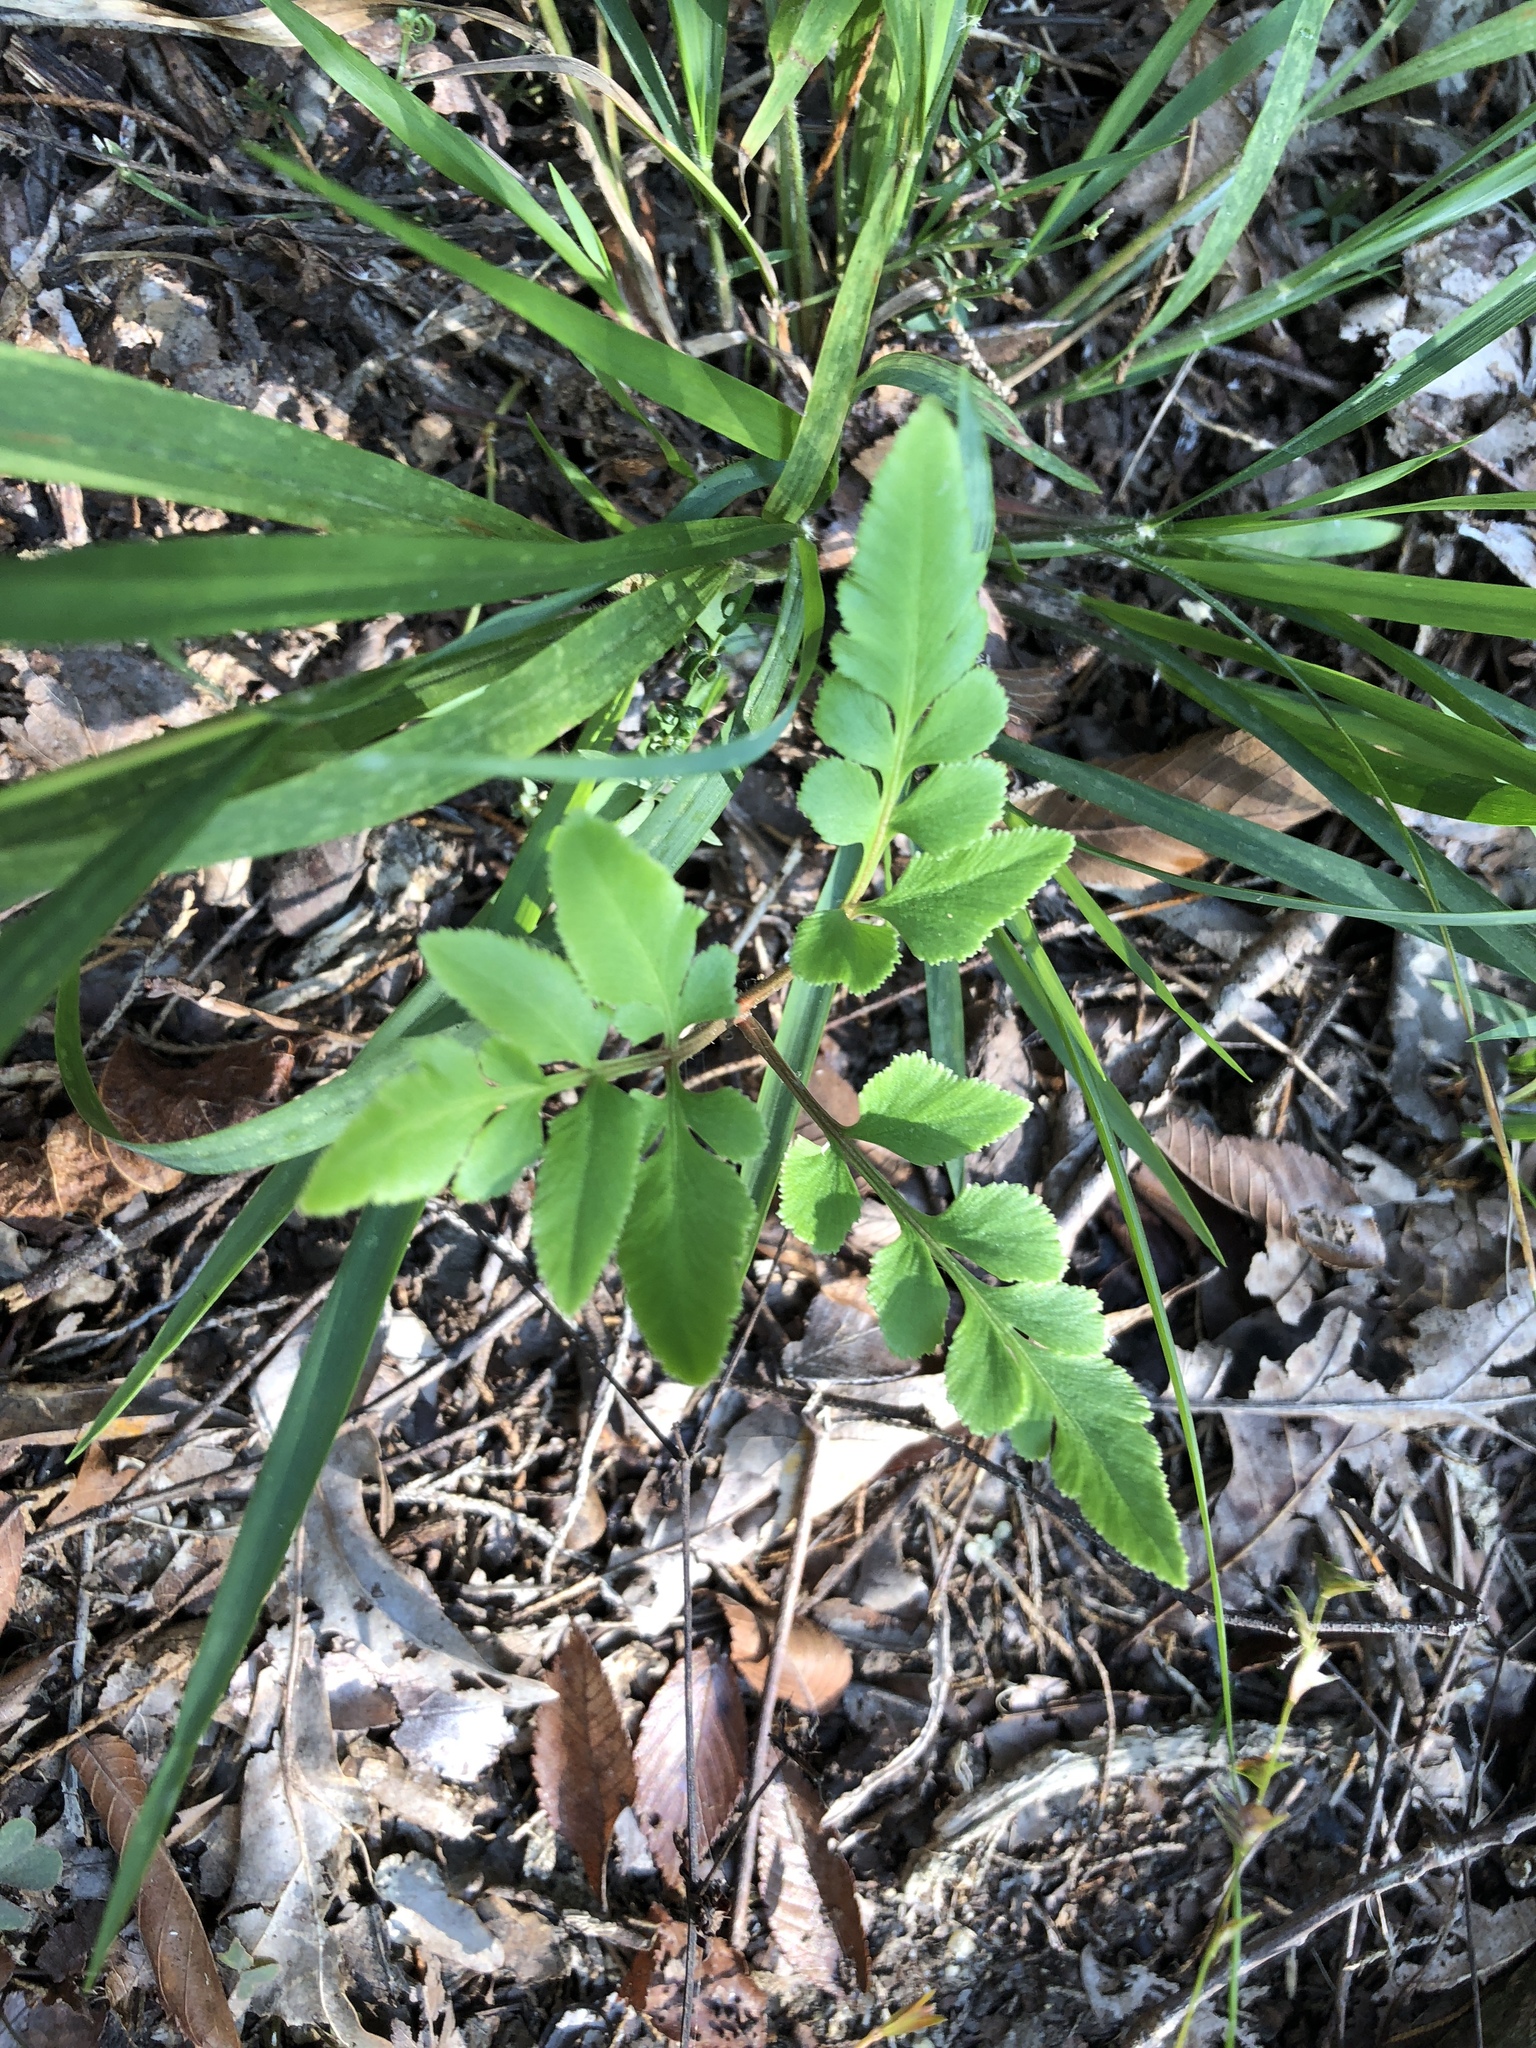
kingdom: Plantae
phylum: Tracheophyta
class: Polypodiopsida
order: Ophioglossales
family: Ophioglossaceae
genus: Sceptridium
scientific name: Sceptridium biternatum
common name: Sparse-lobed grapefern
